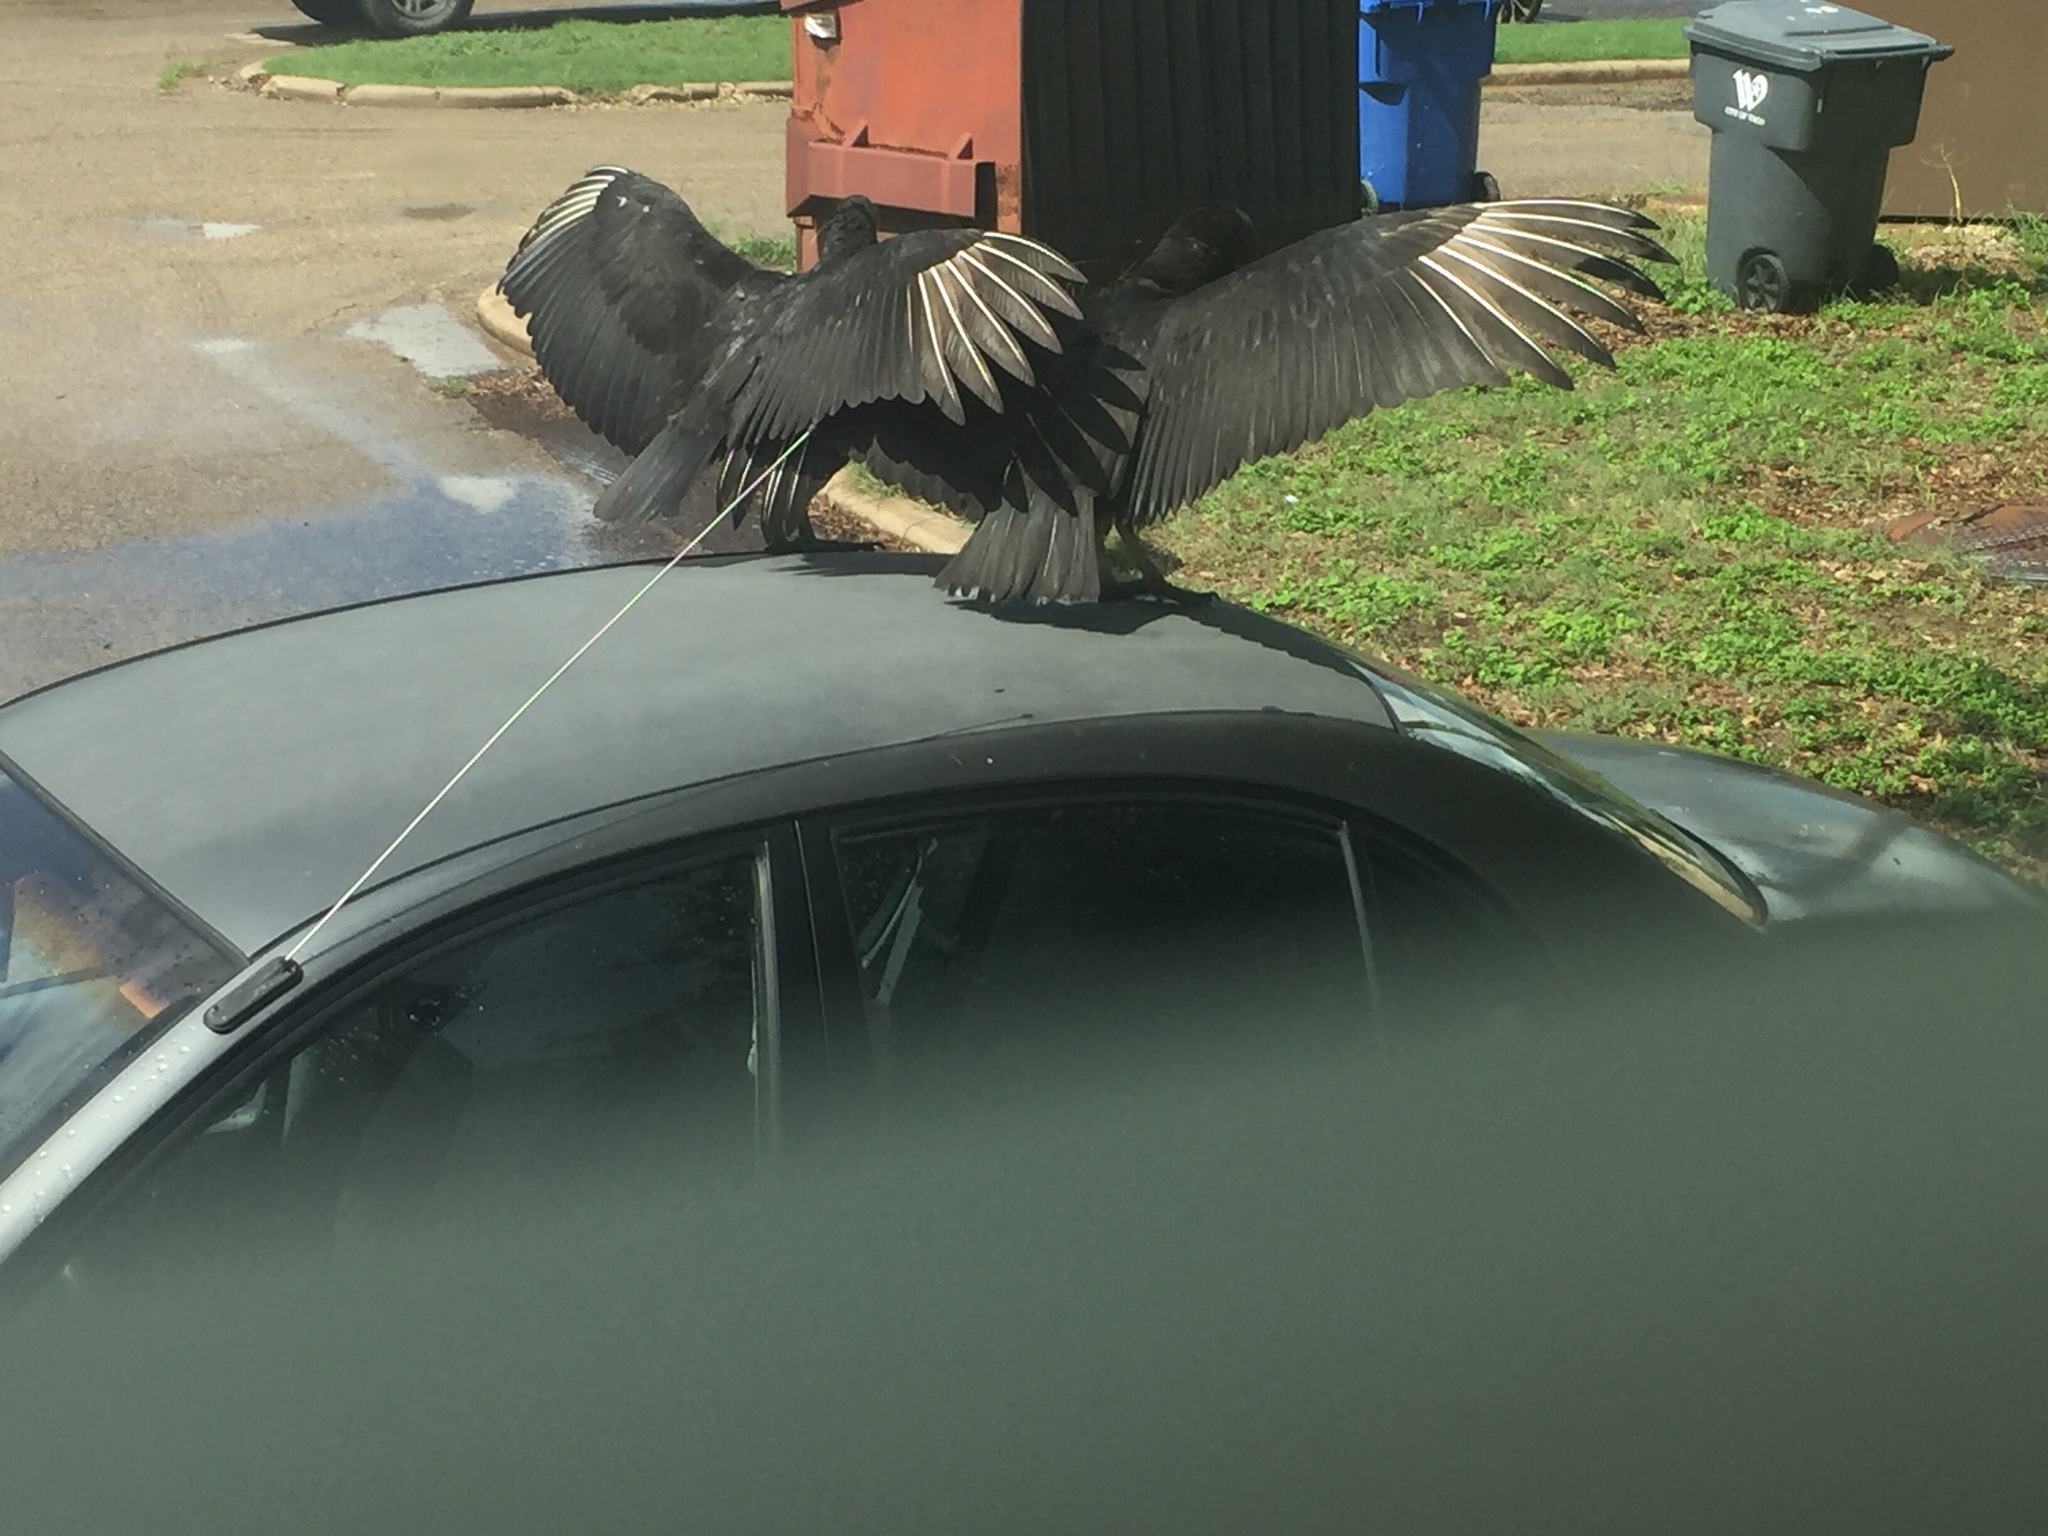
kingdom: Animalia
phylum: Chordata
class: Aves
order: Accipitriformes
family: Cathartidae
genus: Coragyps
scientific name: Coragyps atratus
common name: Black vulture
